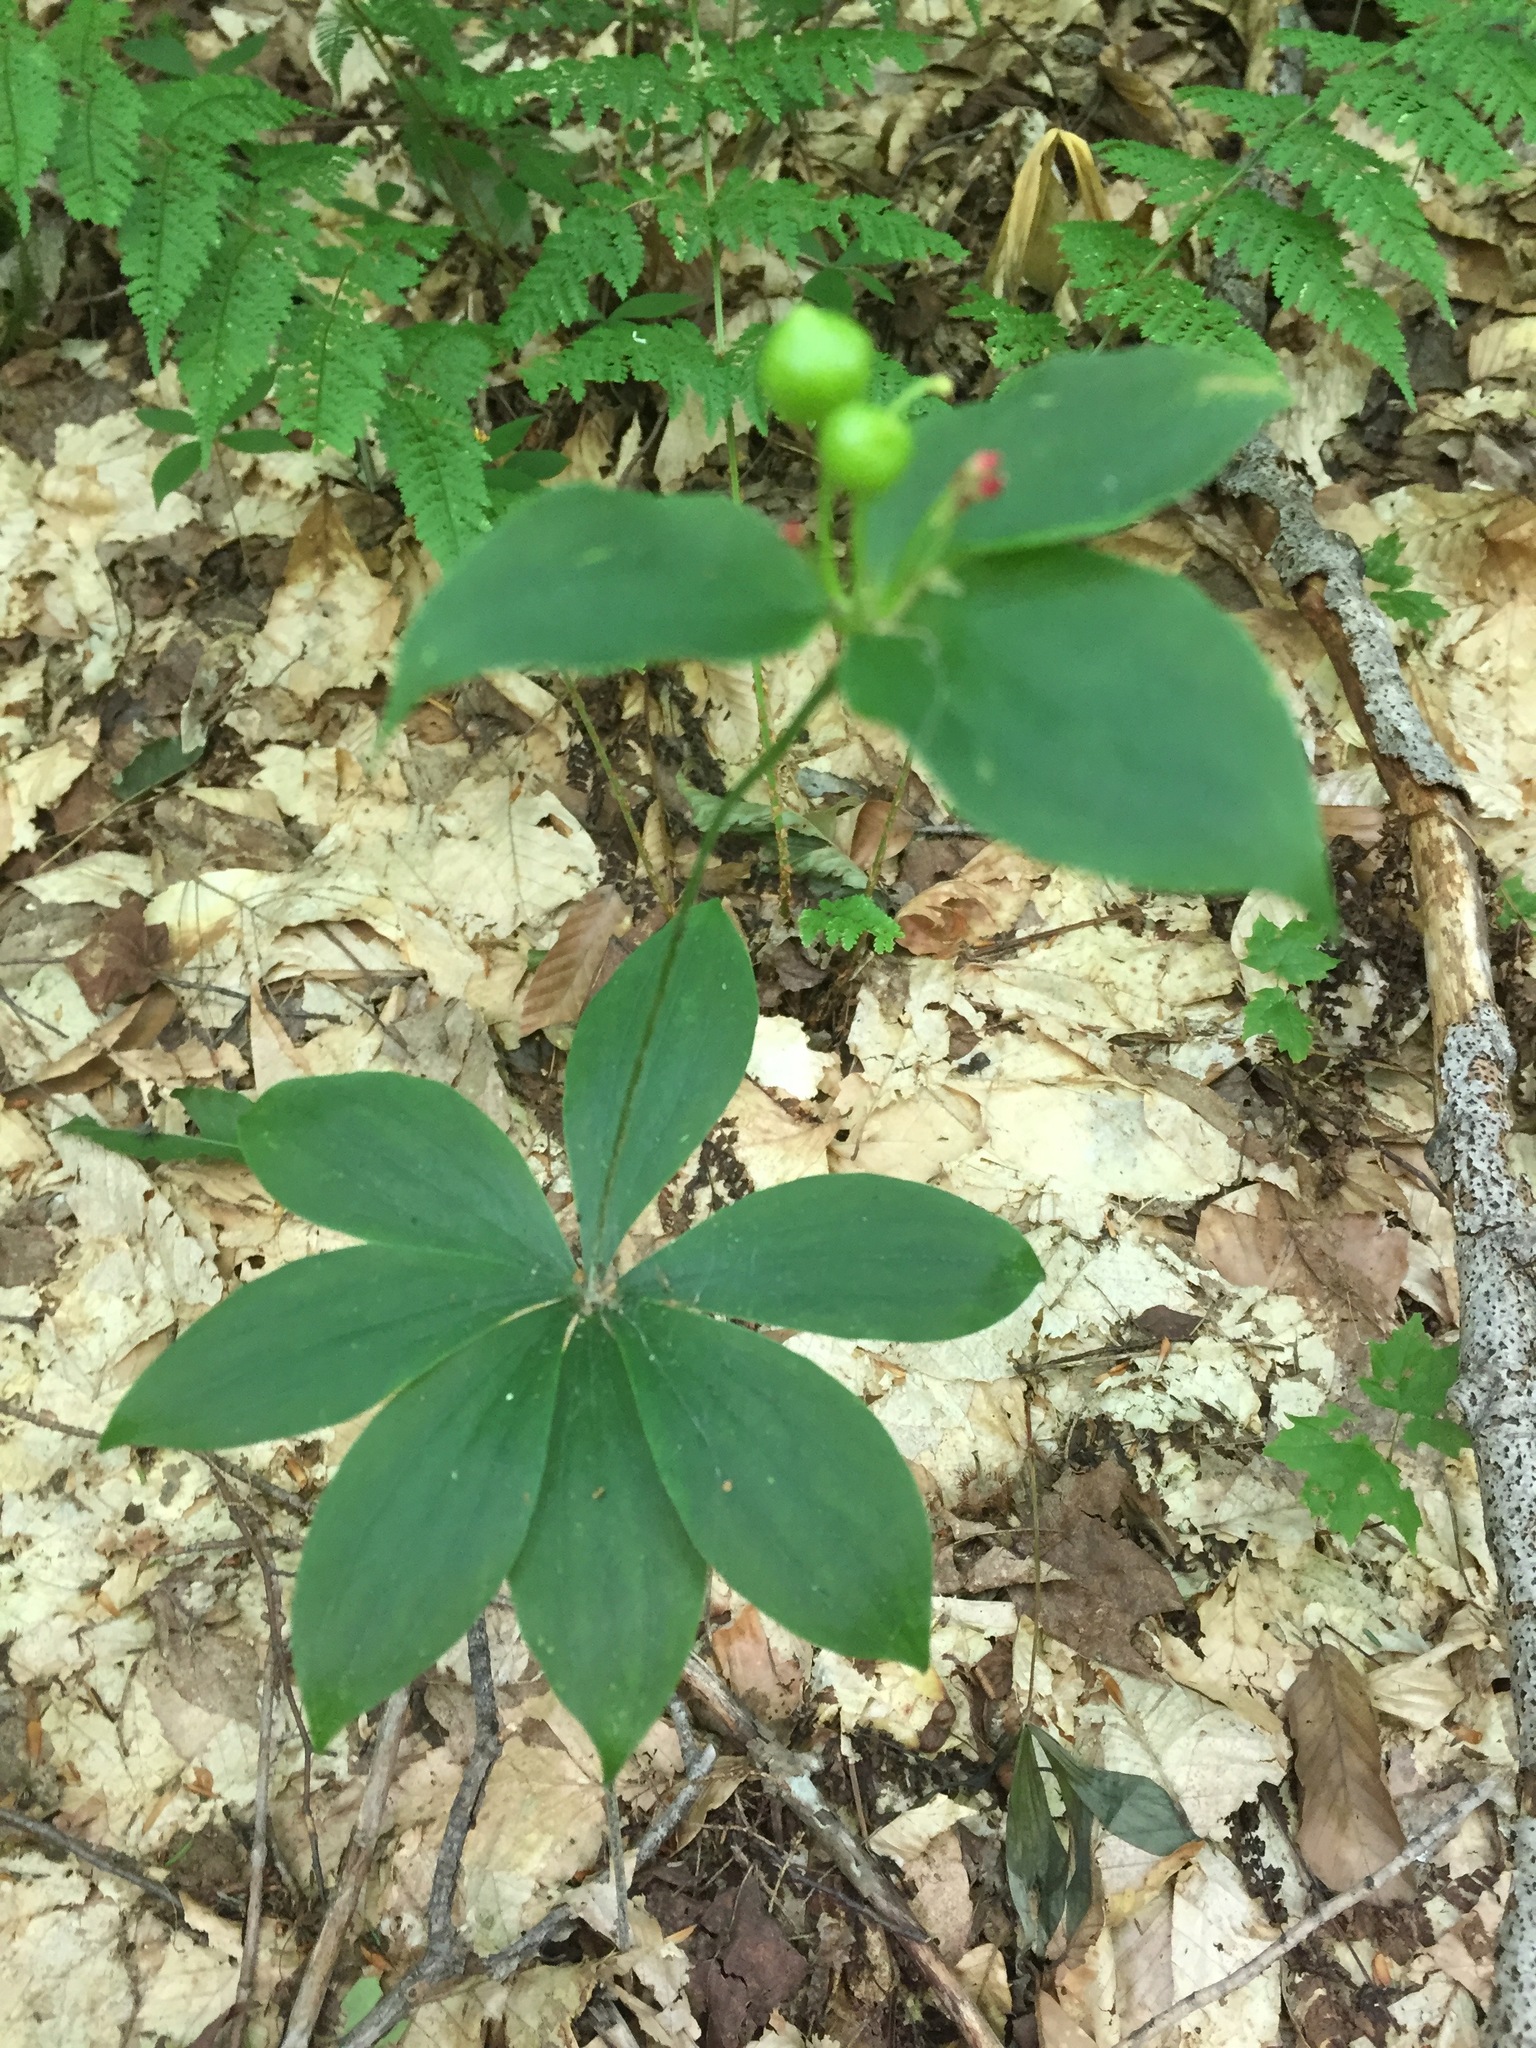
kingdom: Plantae
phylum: Tracheophyta
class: Liliopsida
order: Liliales
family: Liliaceae
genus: Medeola
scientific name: Medeola virginiana
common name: Indian cucumber-root
